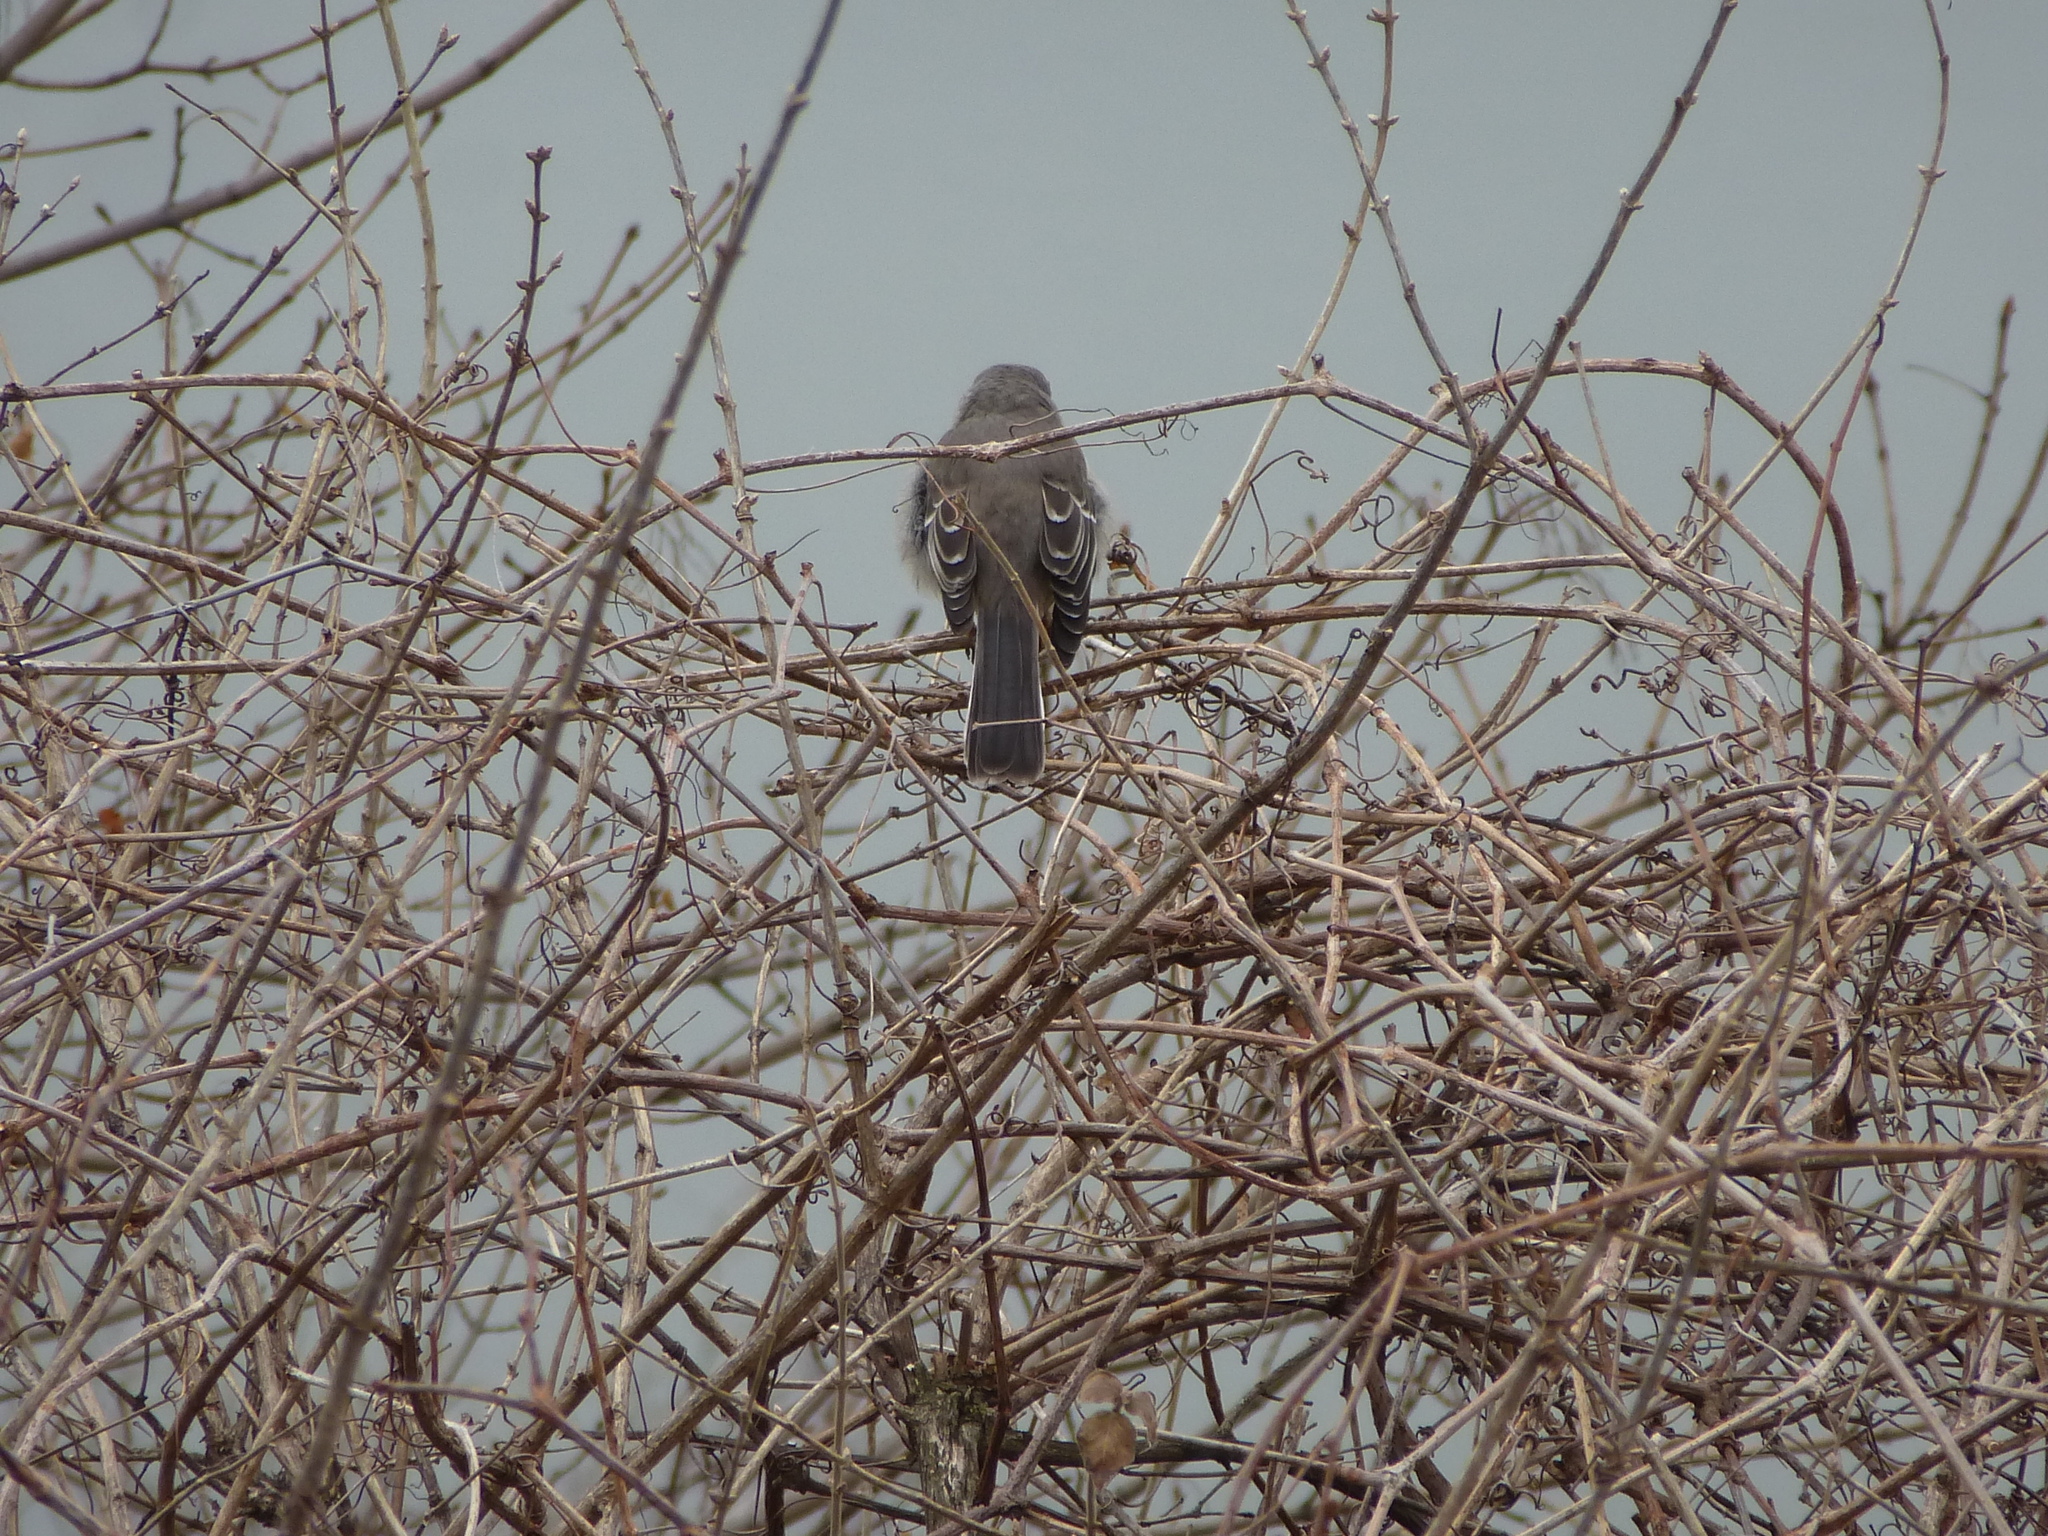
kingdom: Animalia
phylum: Chordata
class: Aves
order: Passeriformes
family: Mimidae
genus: Mimus
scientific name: Mimus polyglottos
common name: Northern mockingbird
